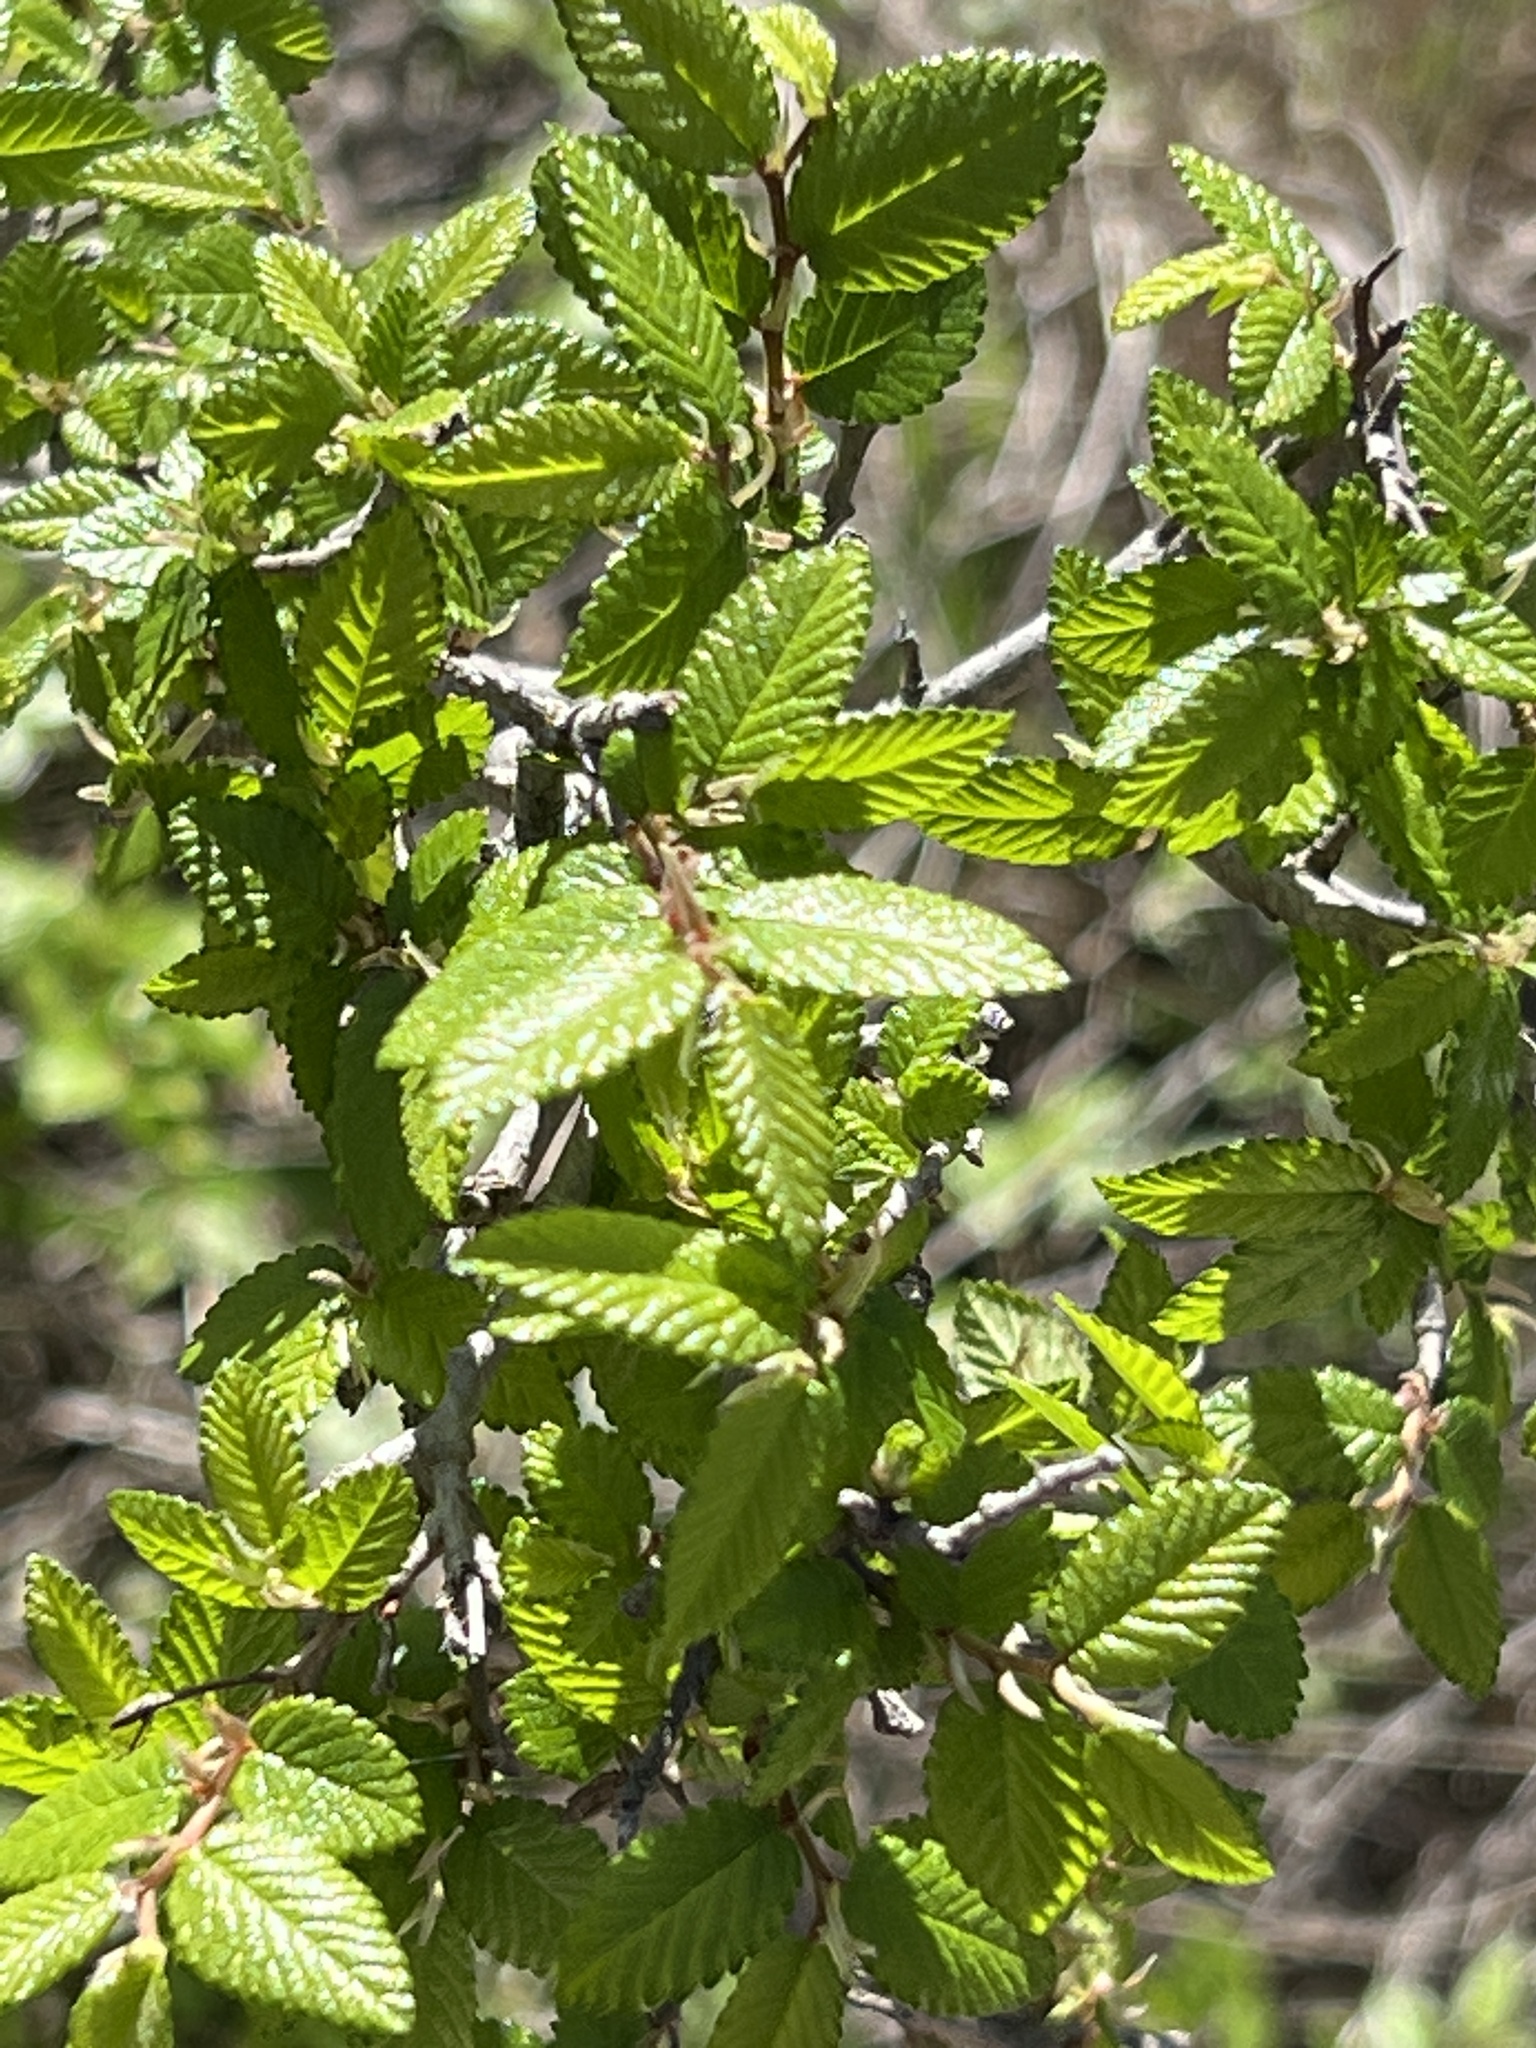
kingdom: Plantae
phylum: Tracheophyta
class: Magnoliopsida
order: Rosales
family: Ulmaceae
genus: Ulmus
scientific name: Ulmus crassifolia
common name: Basket elm
